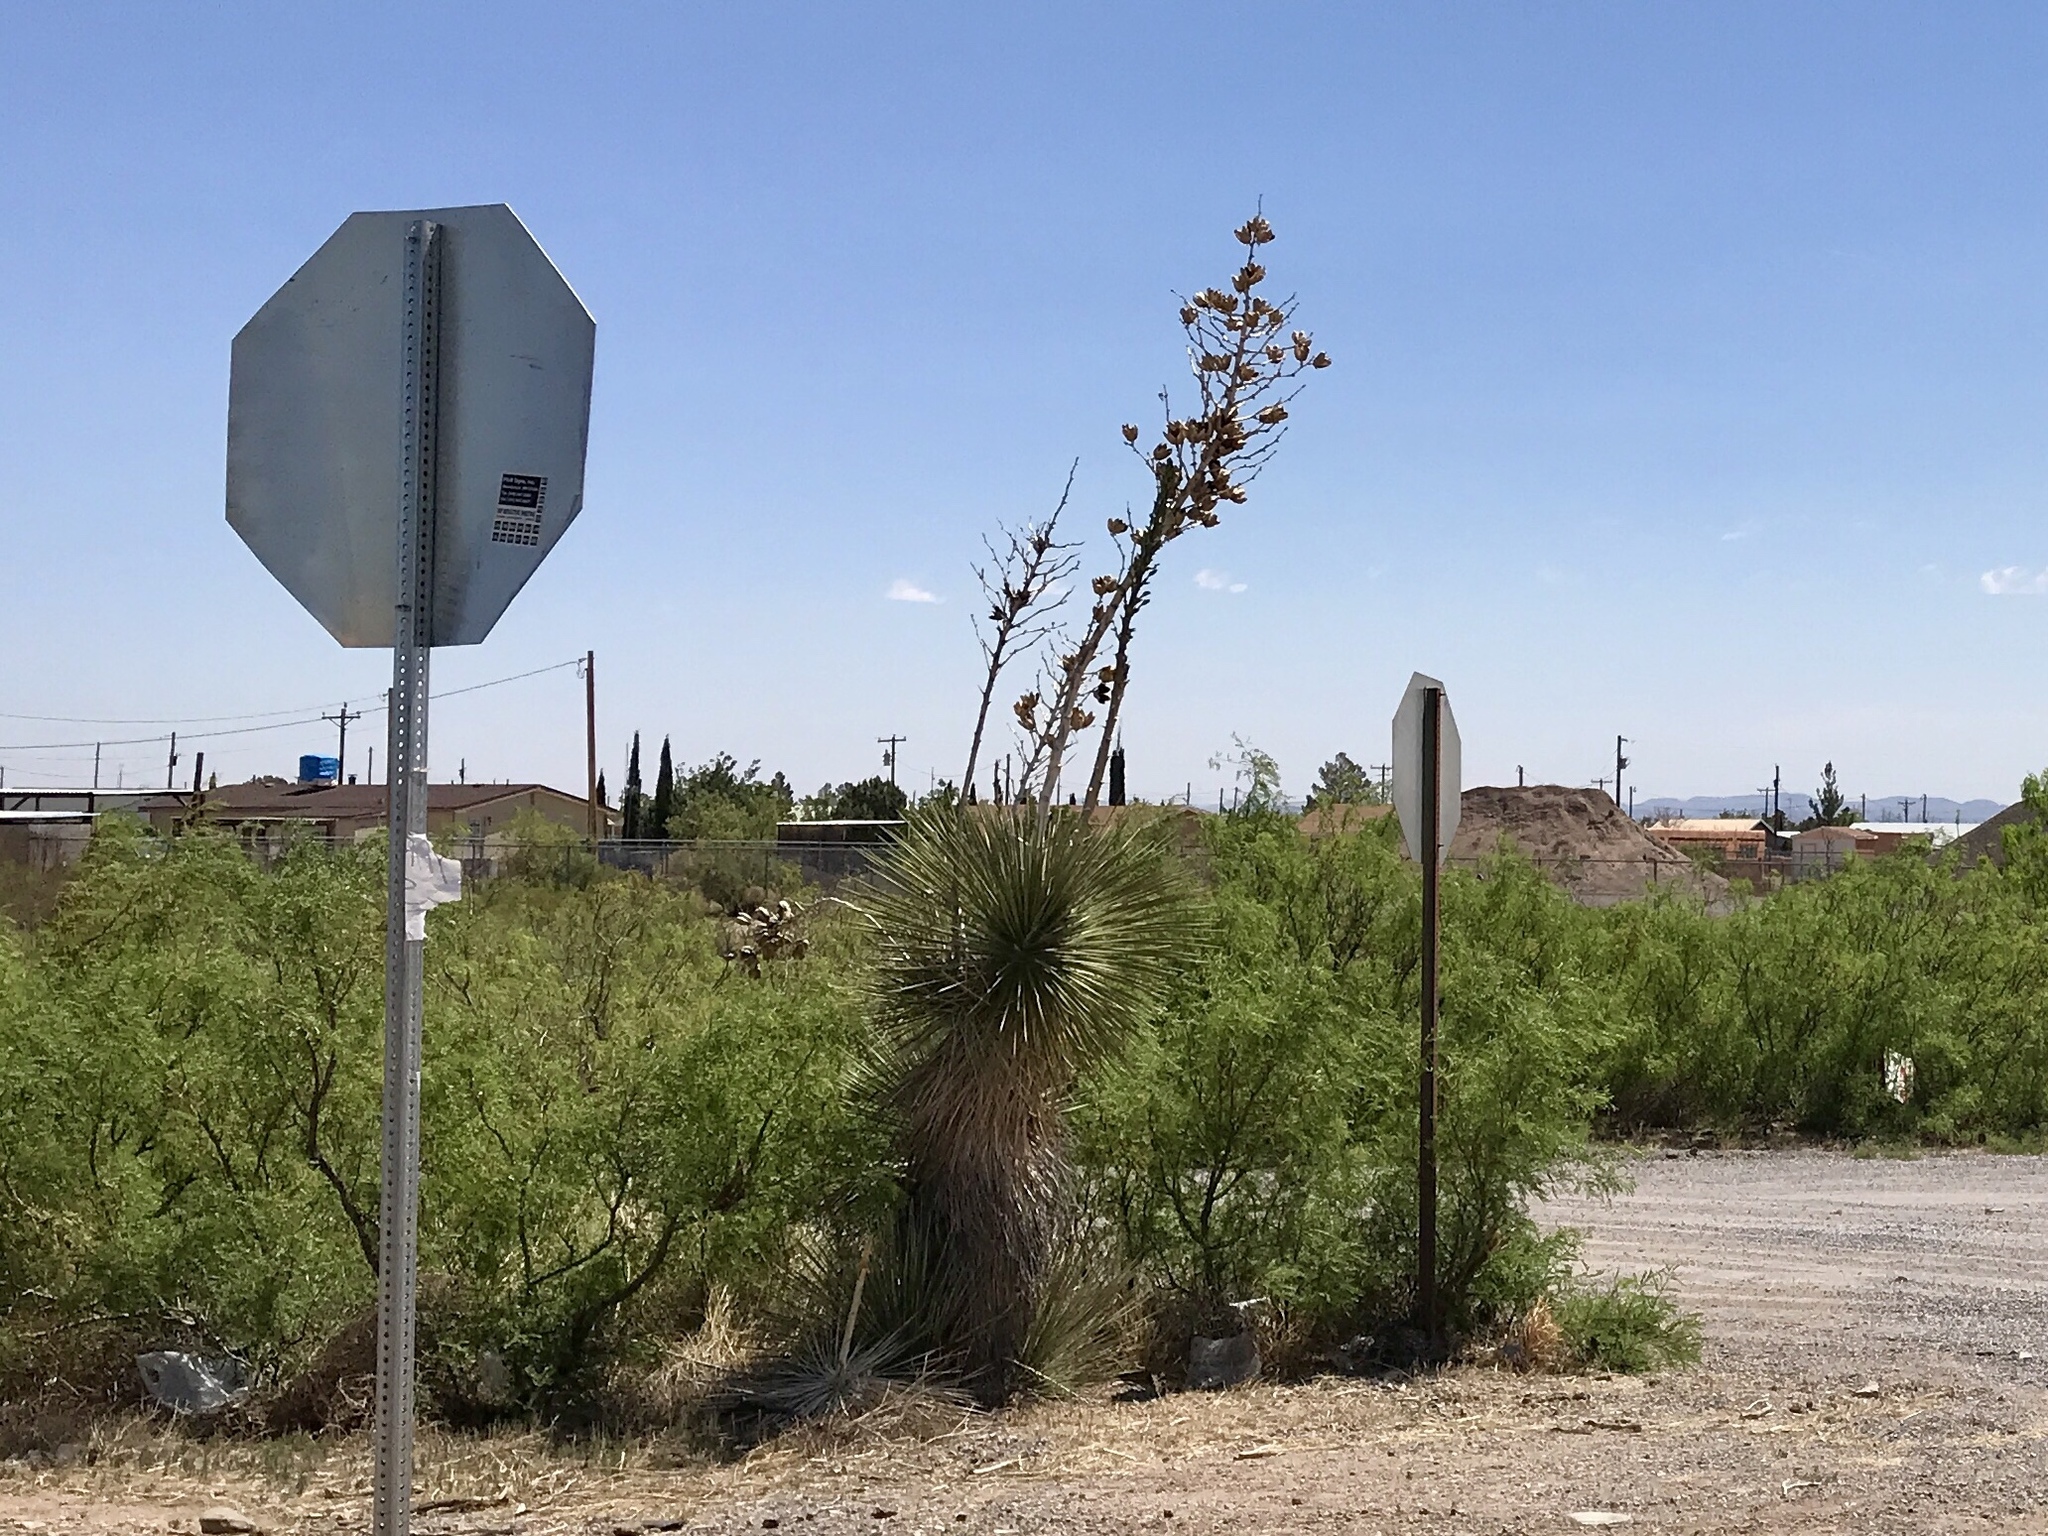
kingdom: Plantae
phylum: Tracheophyta
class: Liliopsida
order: Asparagales
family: Asparagaceae
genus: Yucca
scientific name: Yucca elata
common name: Palmella
